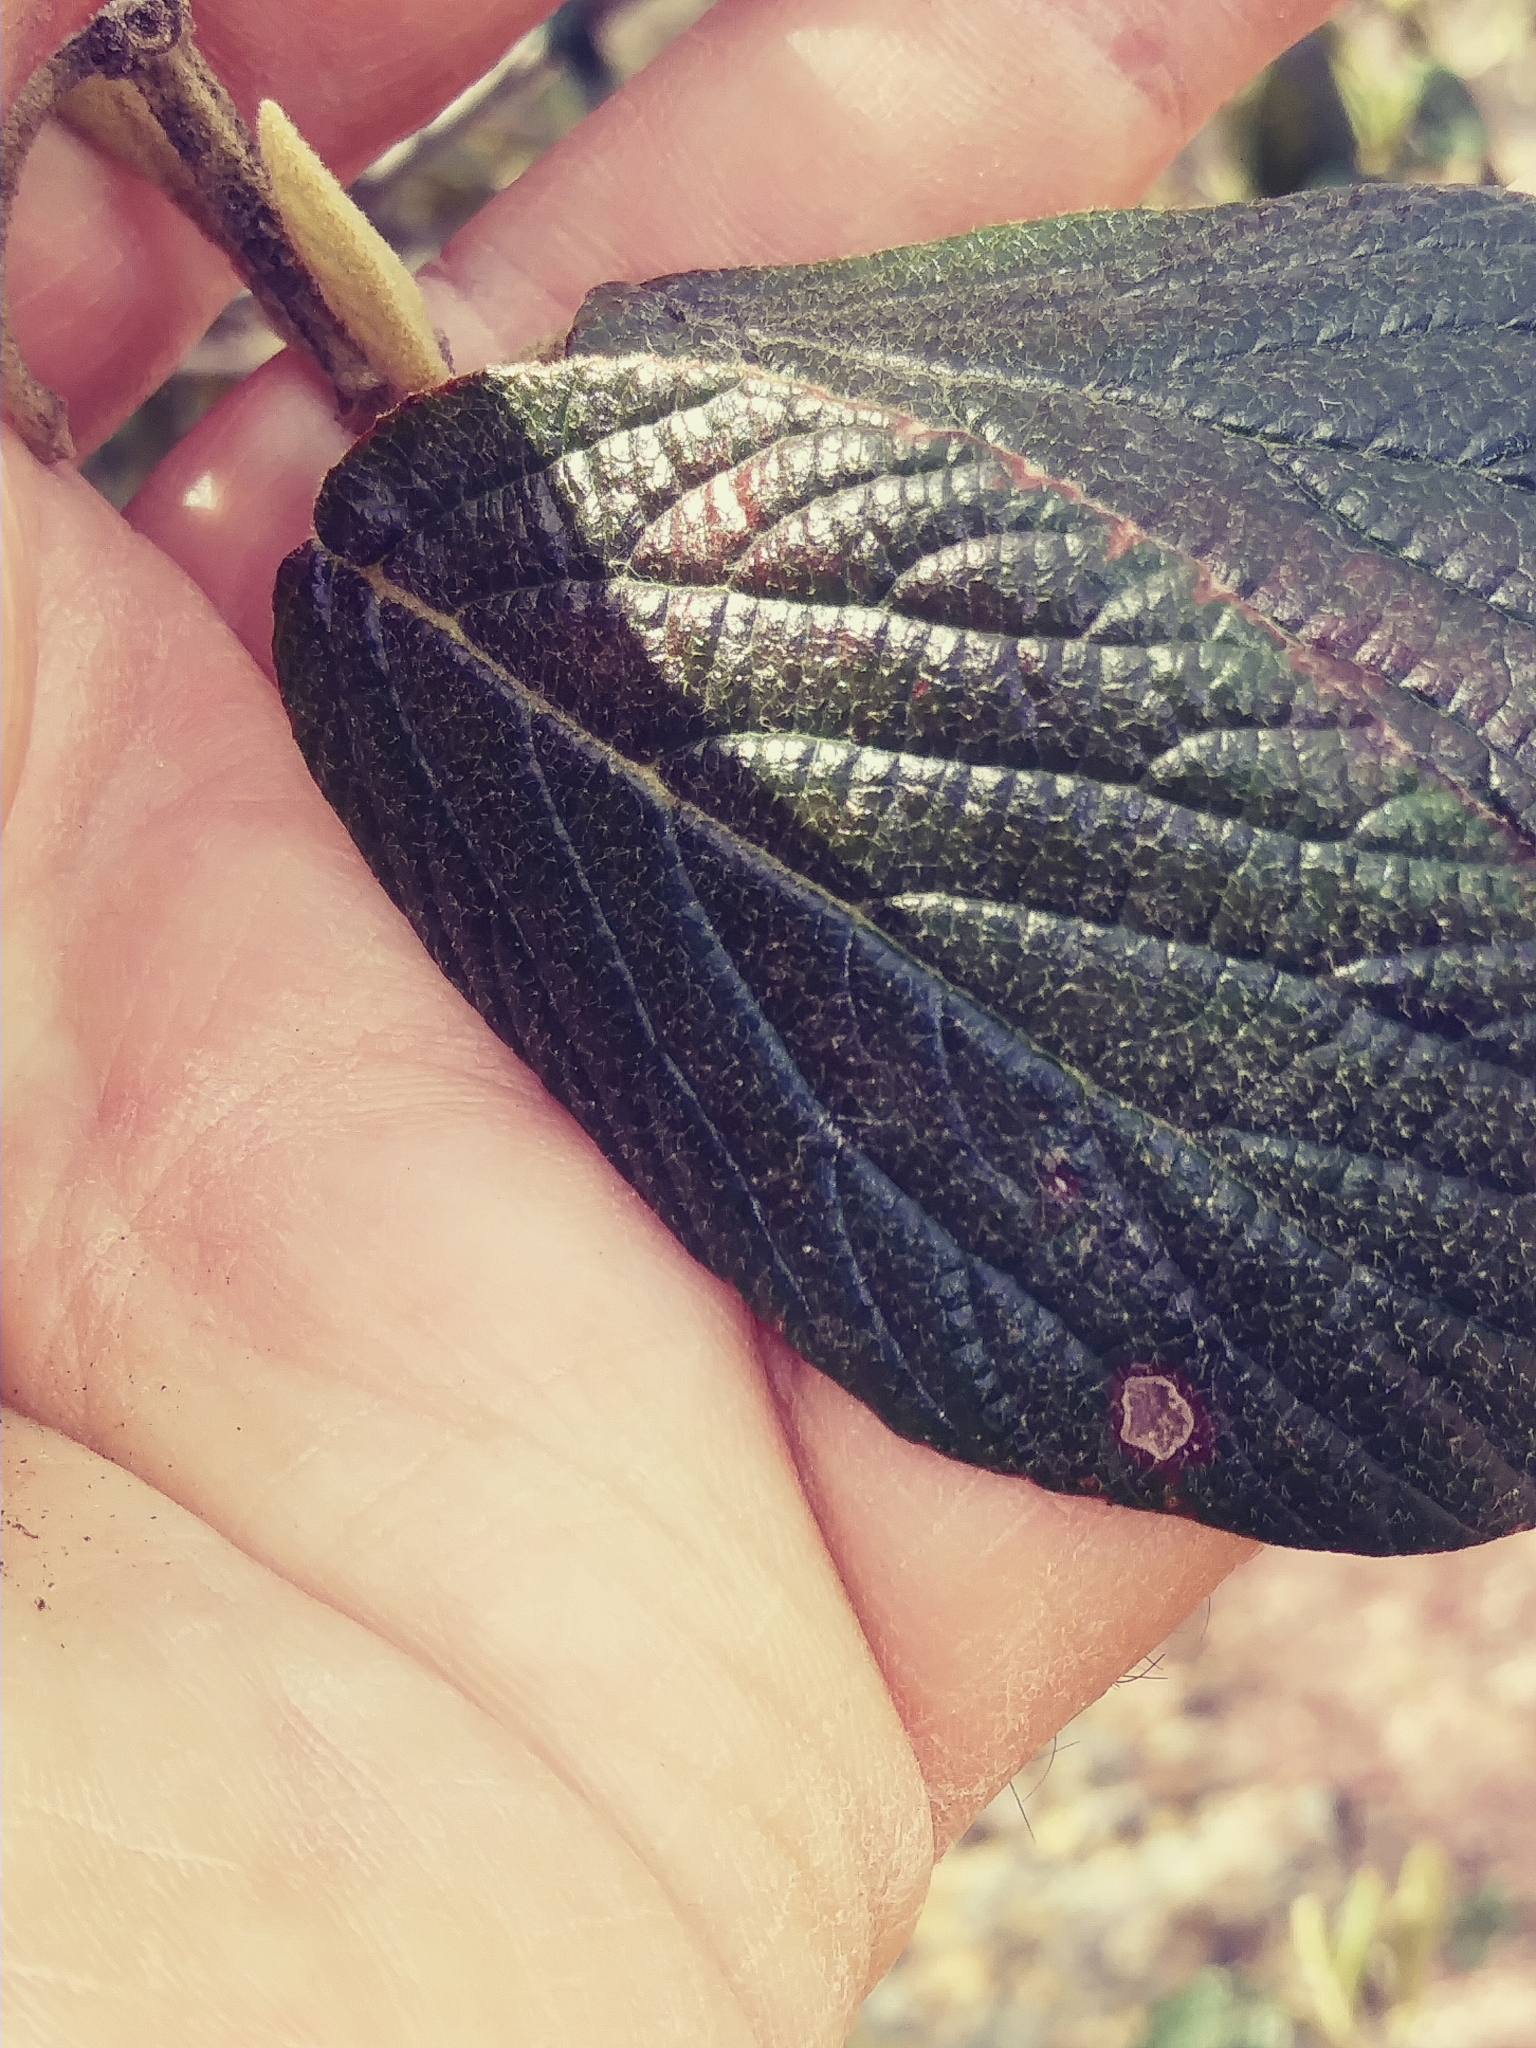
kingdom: Plantae
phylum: Tracheophyta
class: Magnoliopsida
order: Dipsacales
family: Viburnaceae
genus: Viburnum
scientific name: Viburnum lantana
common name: Wayfaring tree
